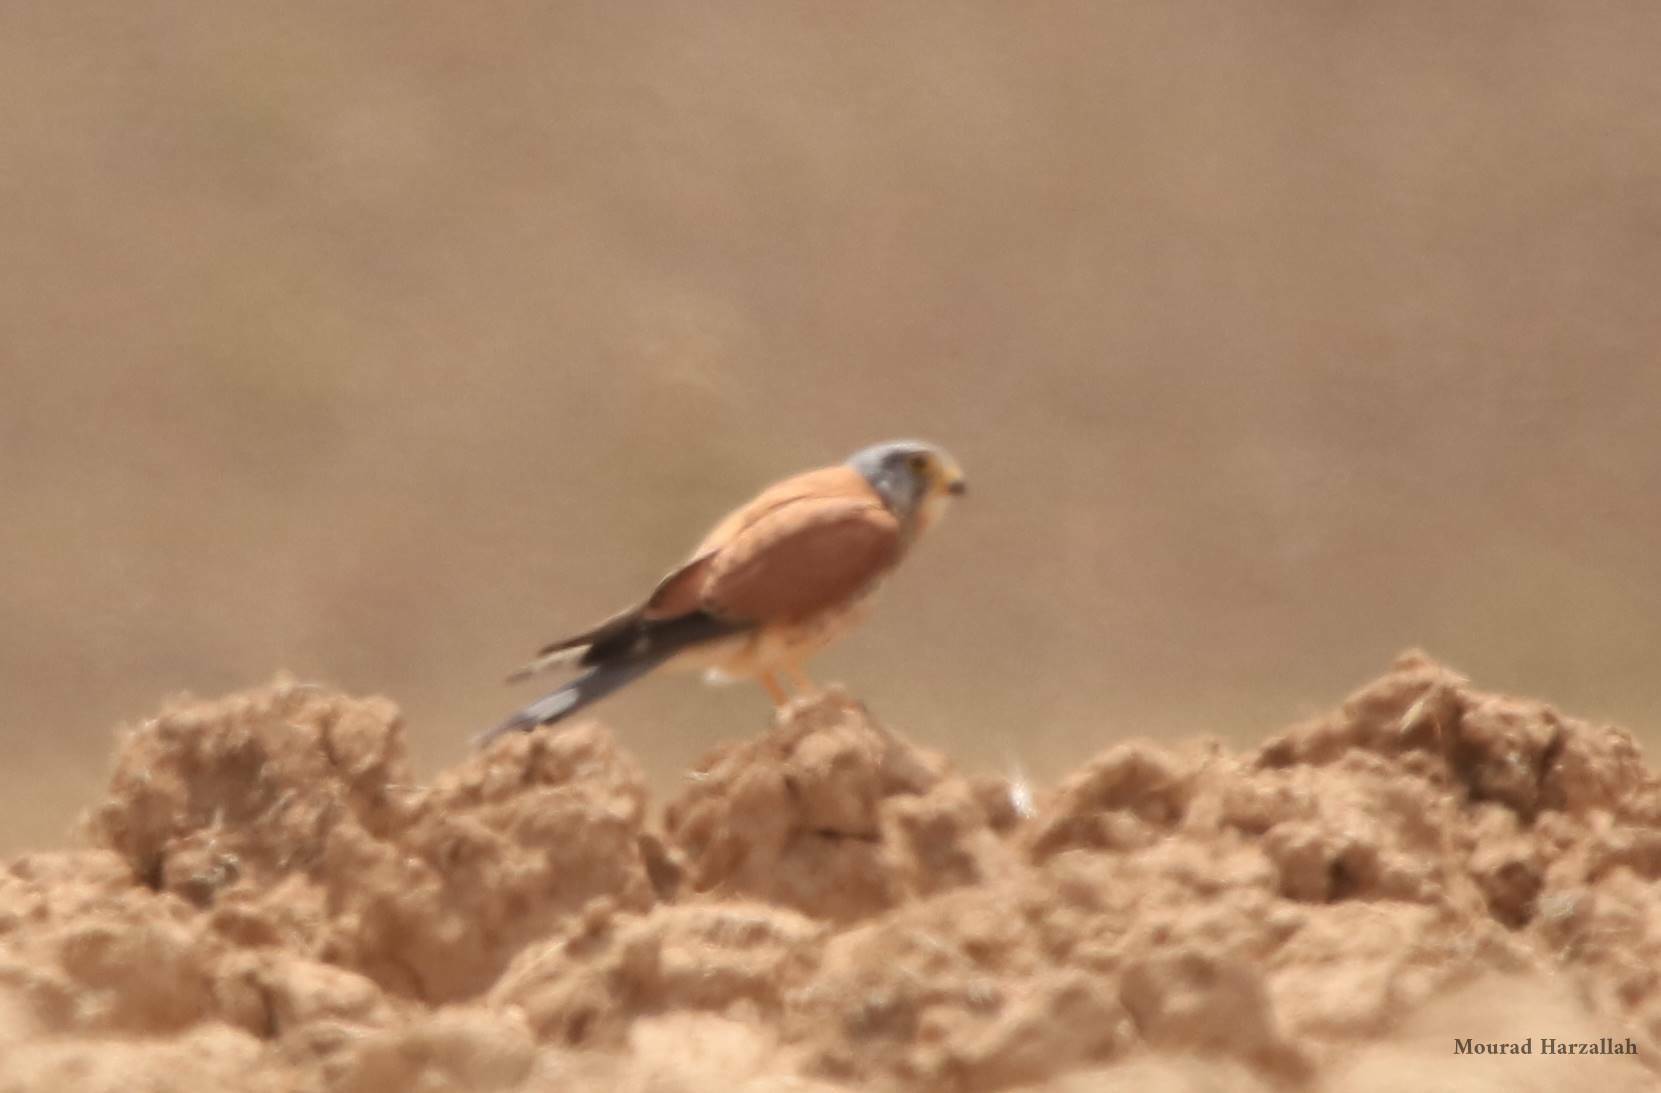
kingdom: Animalia
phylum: Chordata
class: Aves
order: Falconiformes
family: Falconidae
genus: Falco
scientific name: Falco naumanni
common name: Lesser kestrel
